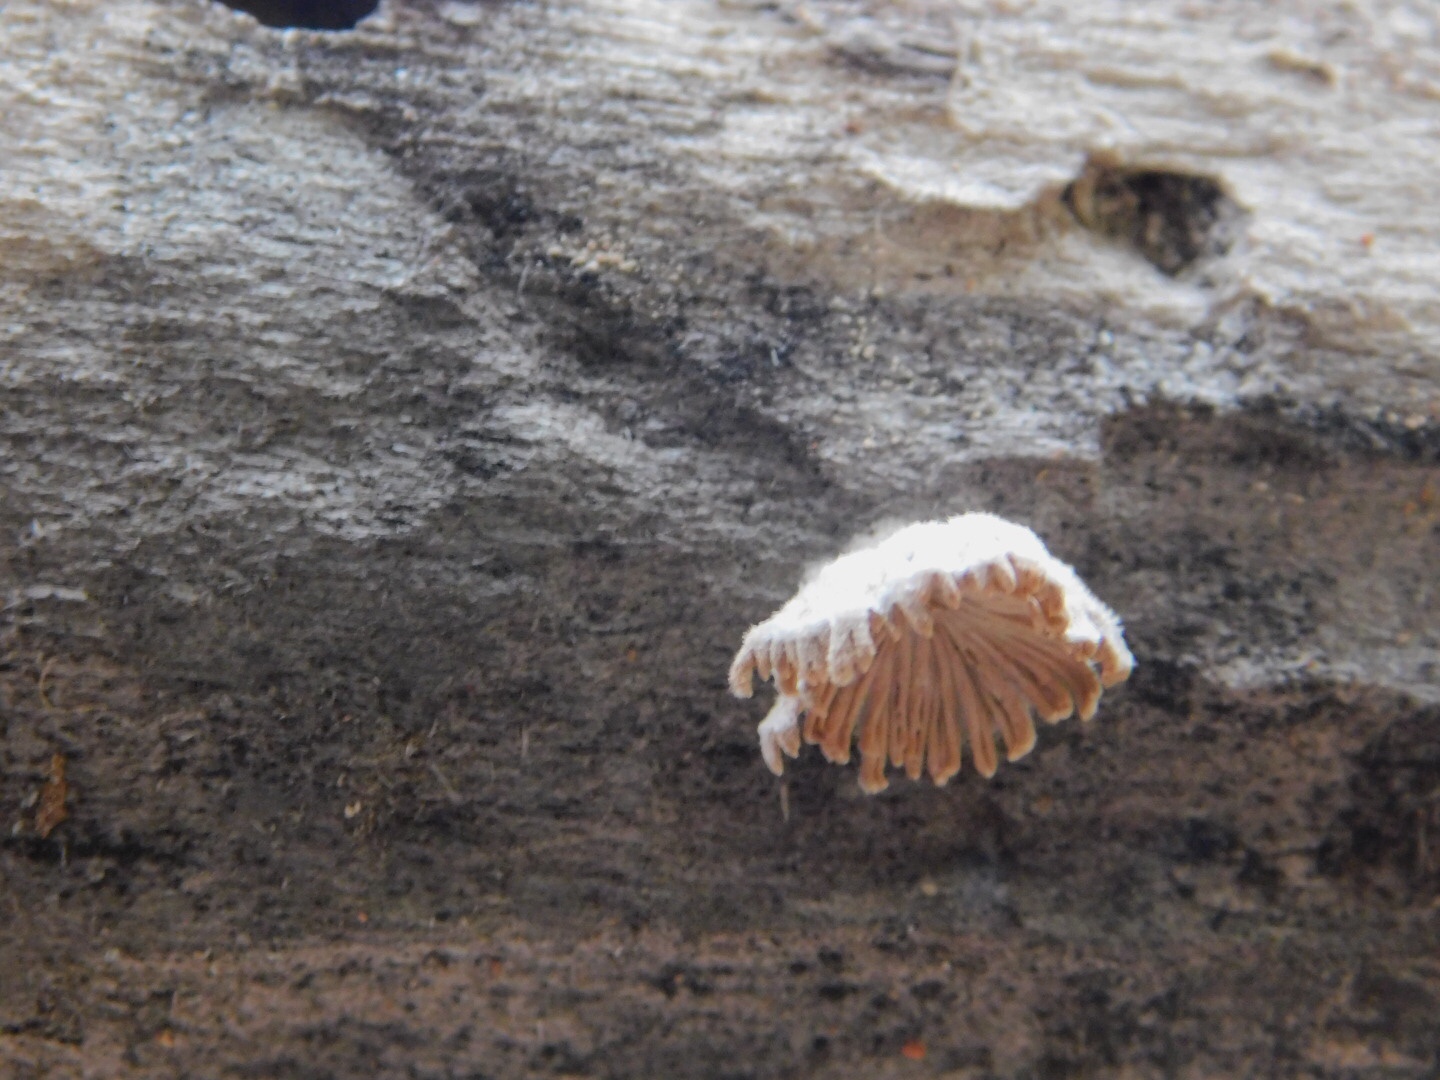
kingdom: Fungi
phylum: Basidiomycota
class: Agaricomycetes
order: Agaricales
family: Schizophyllaceae
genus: Schizophyllum
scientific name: Schizophyllum commune
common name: Common porecrust
